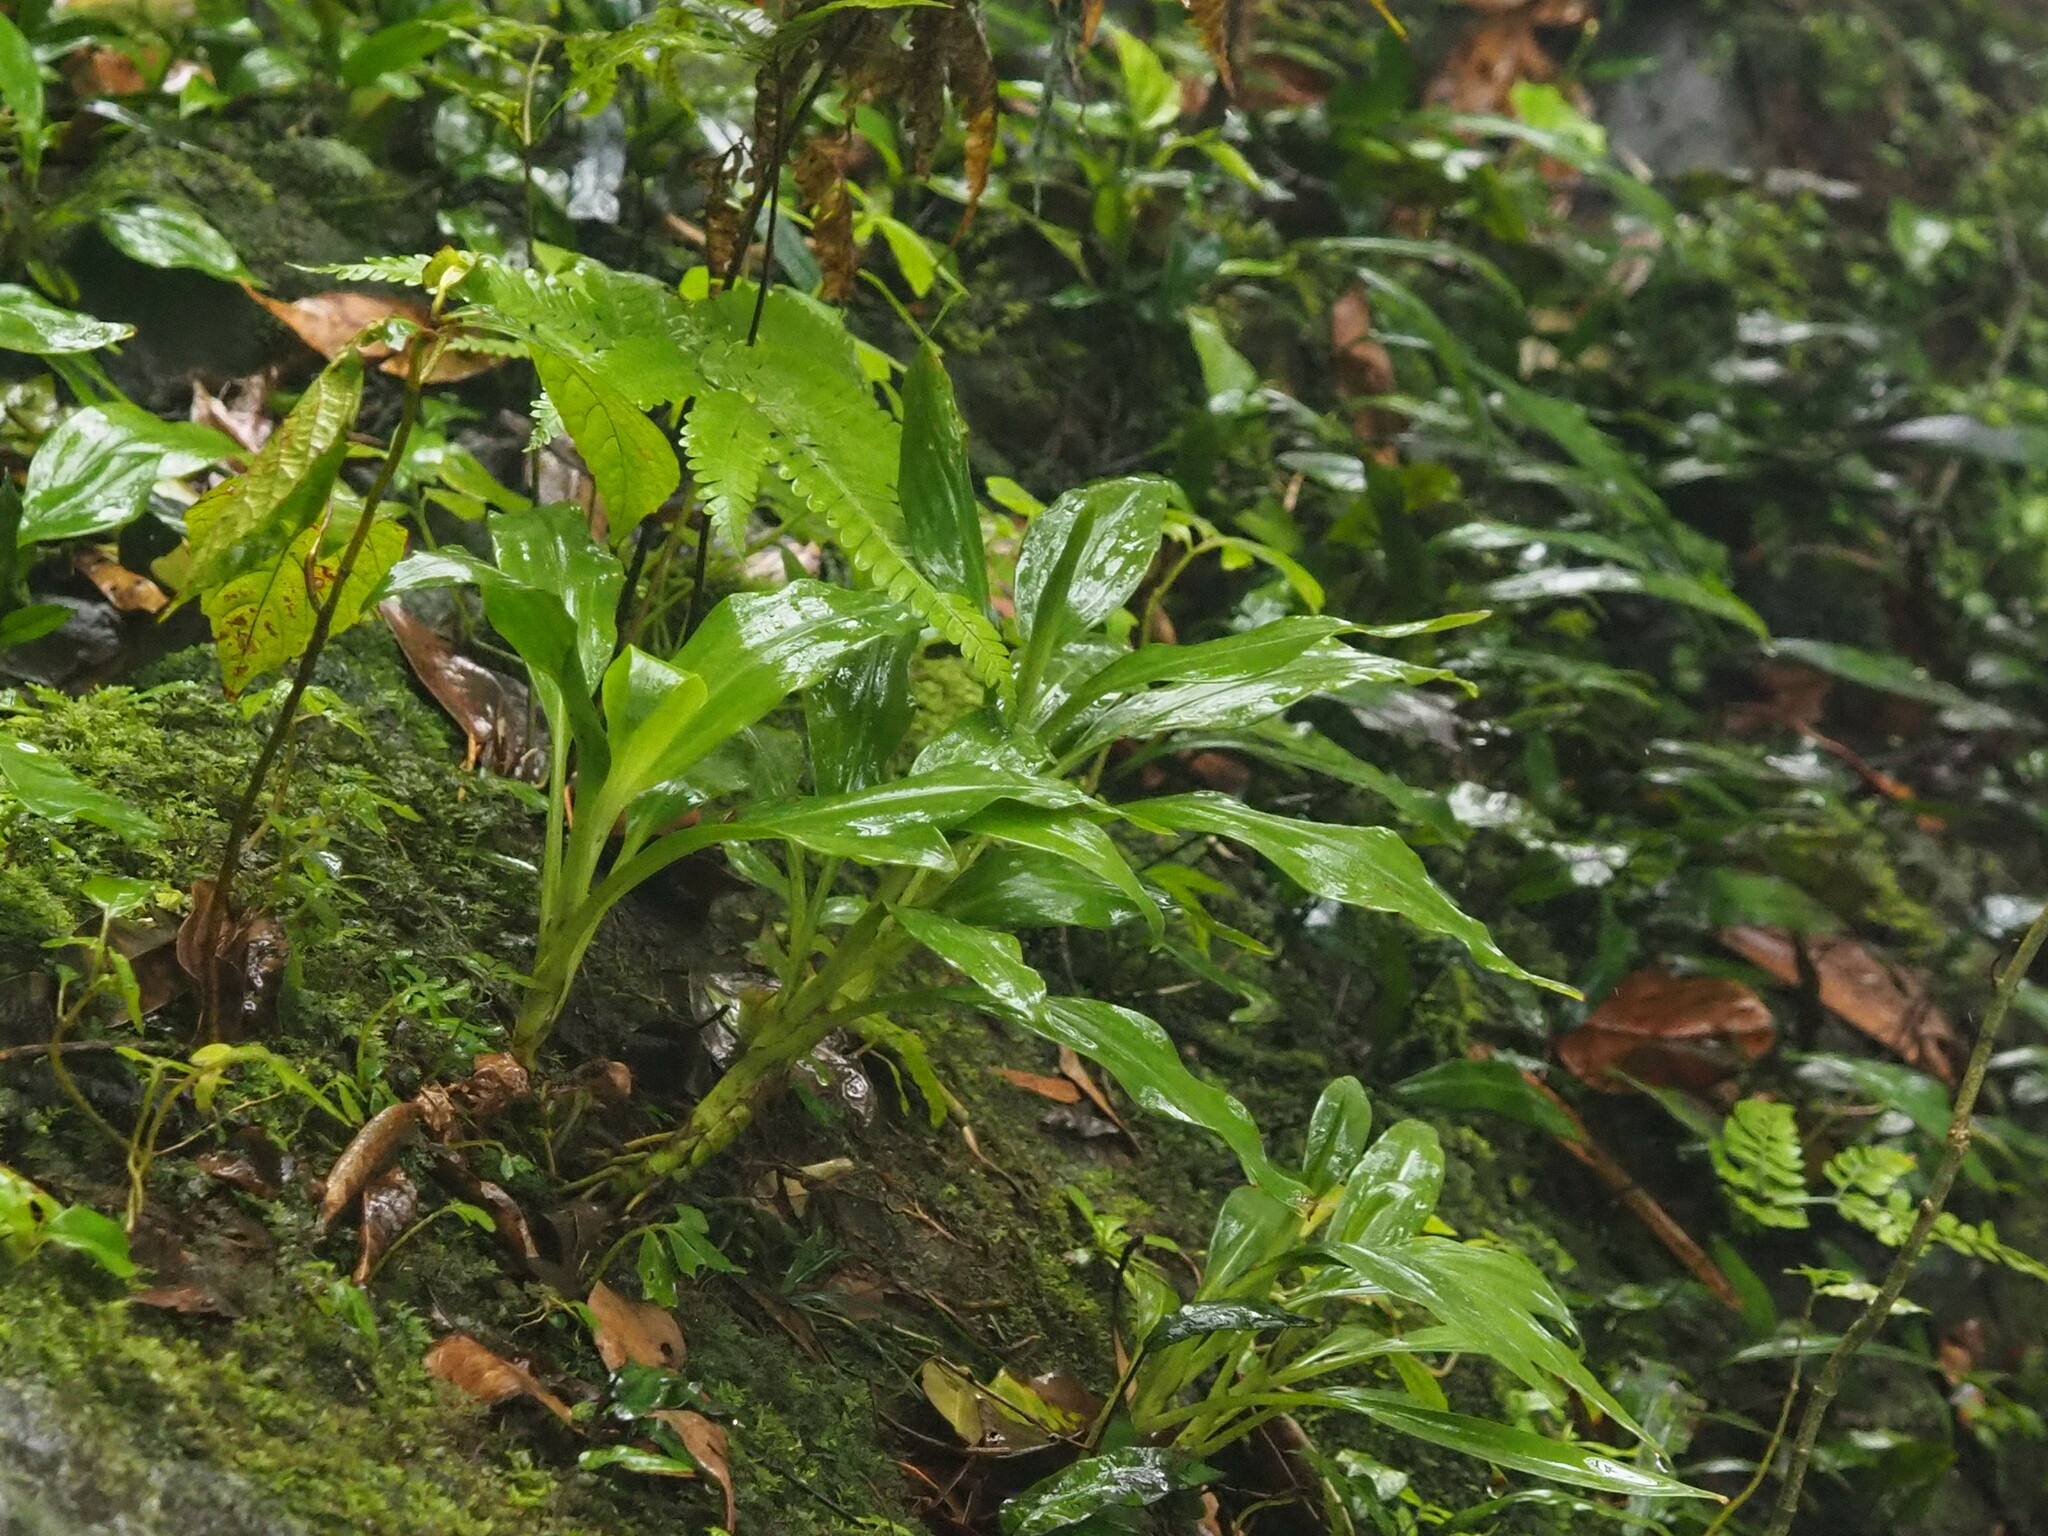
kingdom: Plantae
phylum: Tracheophyta
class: Liliopsida
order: Asparagales
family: Orchidaceae
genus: Goodyera
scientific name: Goodyera procera
